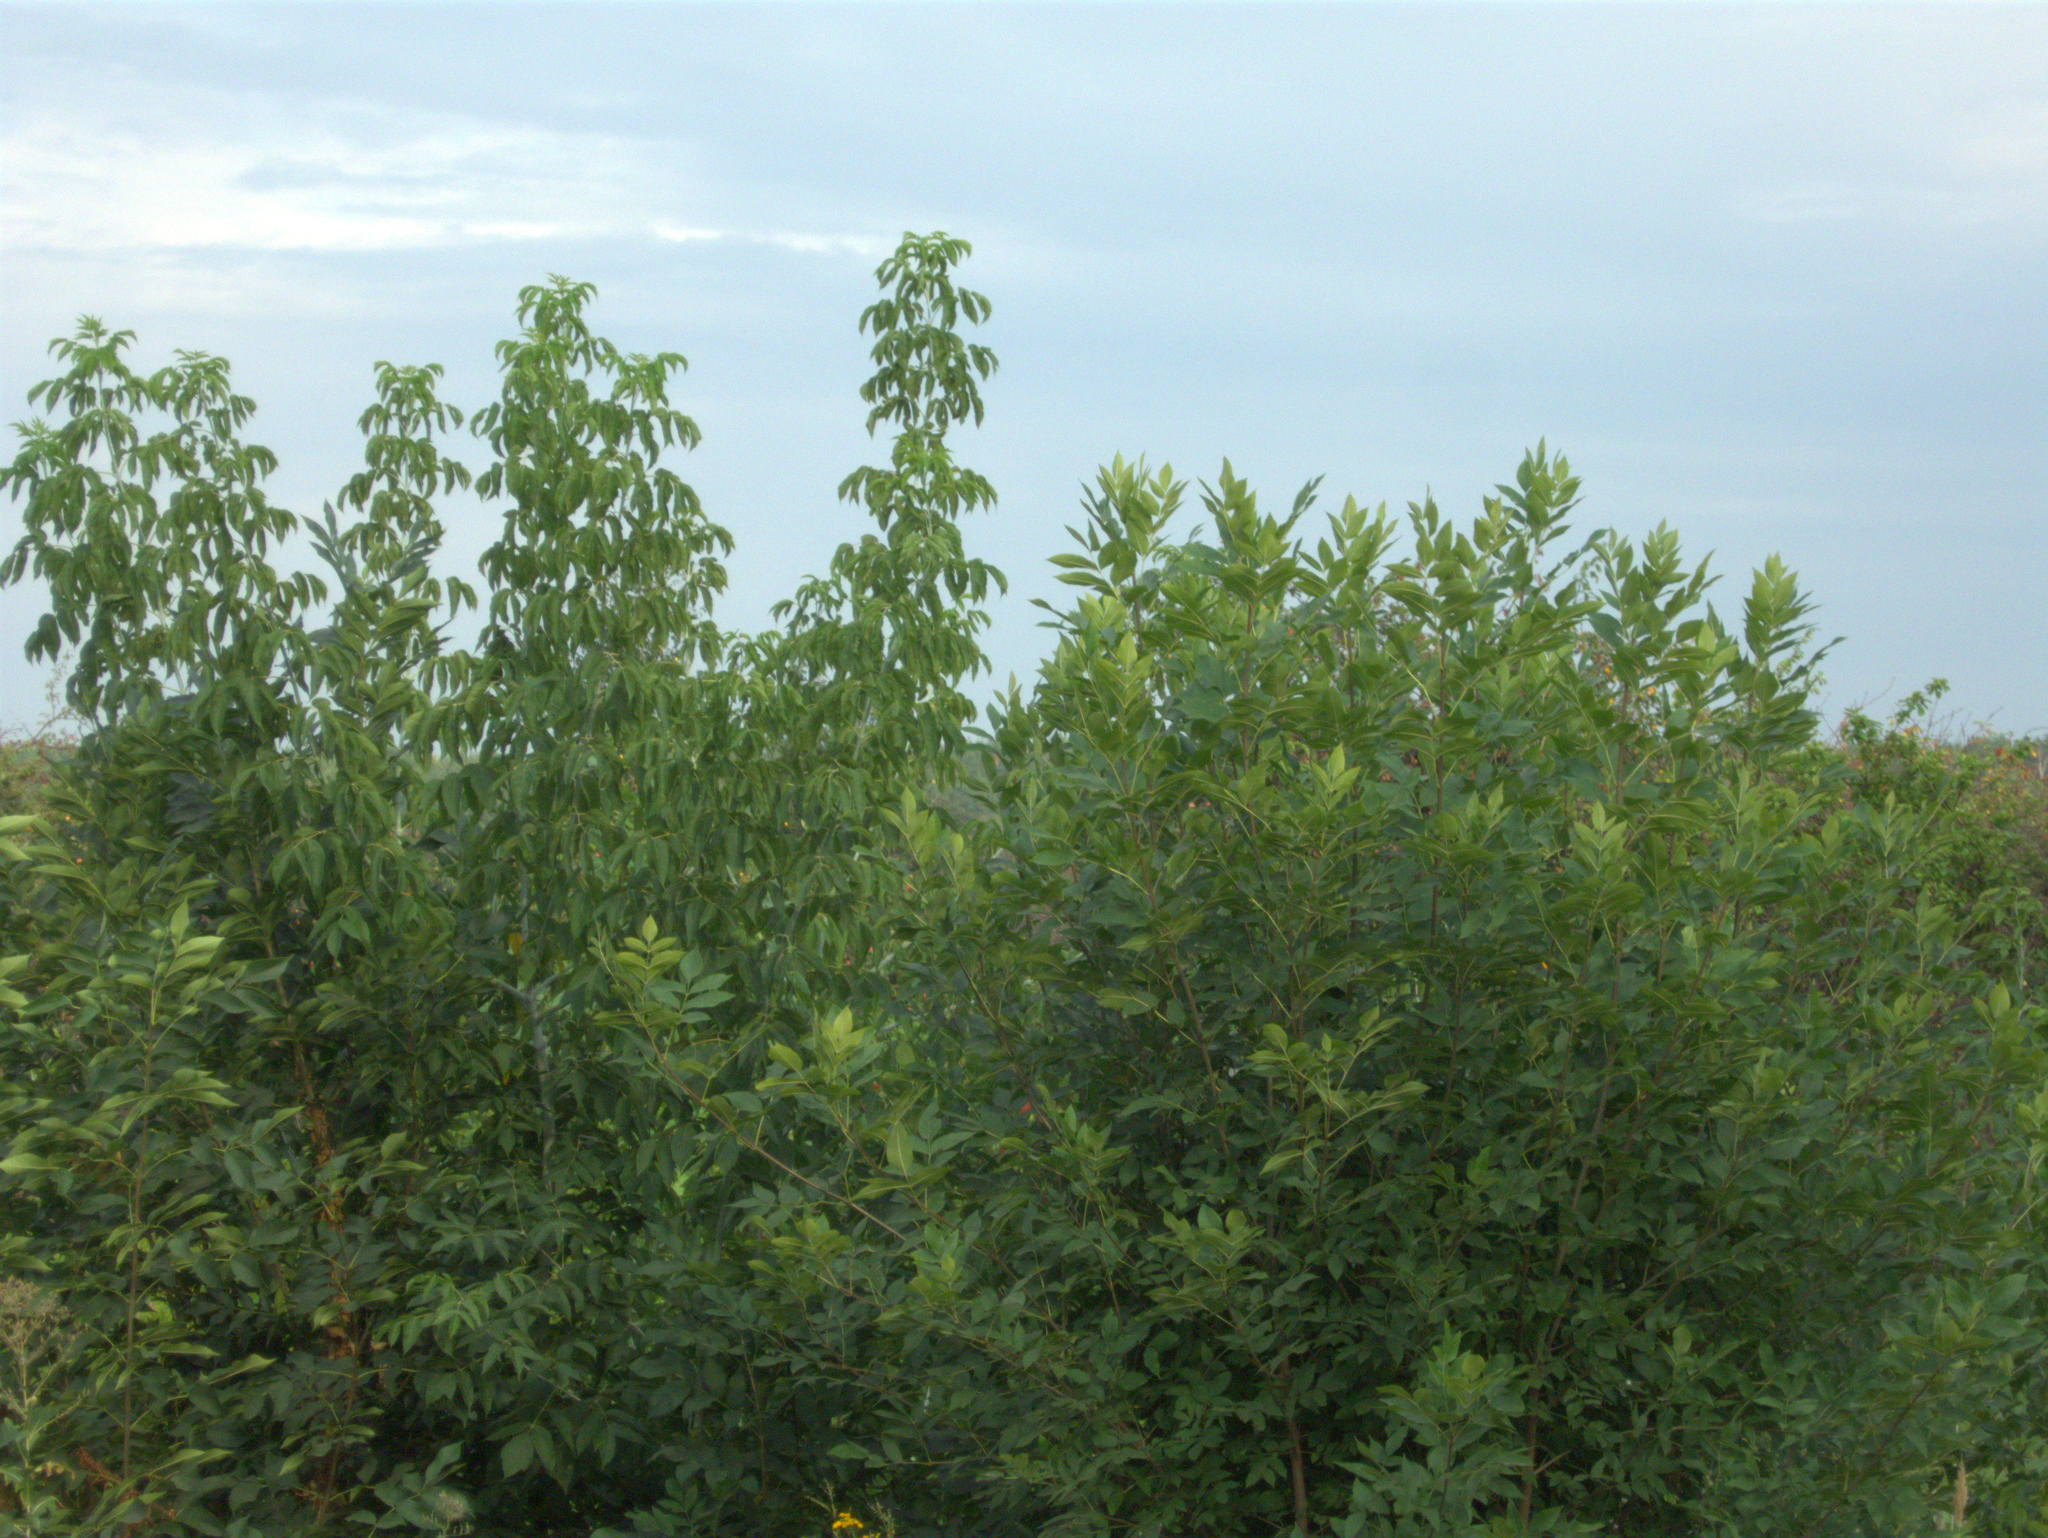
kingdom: Plantae
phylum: Tracheophyta
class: Magnoliopsida
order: Sapindales
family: Sapindaceae
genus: Acer
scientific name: Acer negundo
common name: Ashleaf maple
